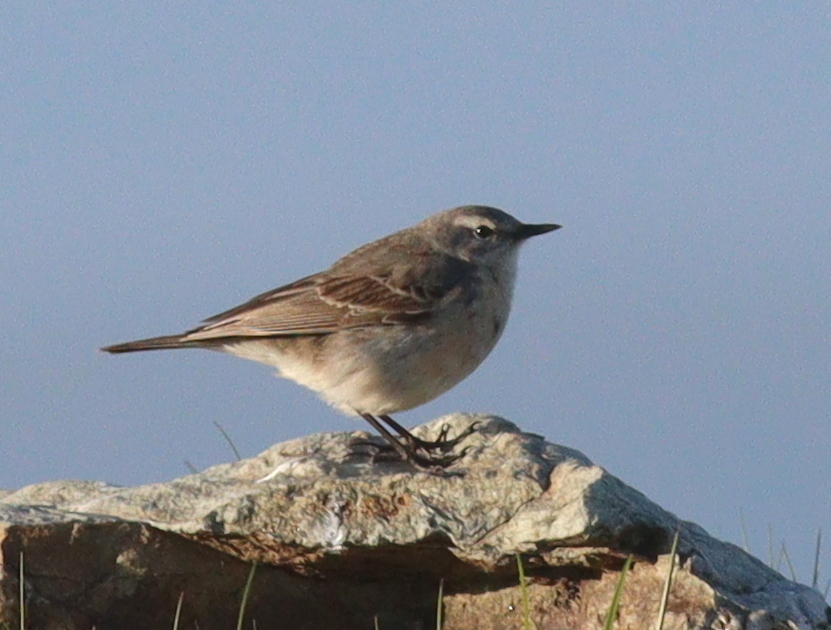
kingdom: Animalia
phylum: Chordata
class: Aves
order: Passeriformes
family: Motacillidae
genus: Anthus
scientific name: Anthus spinoletta
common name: Water pipit
